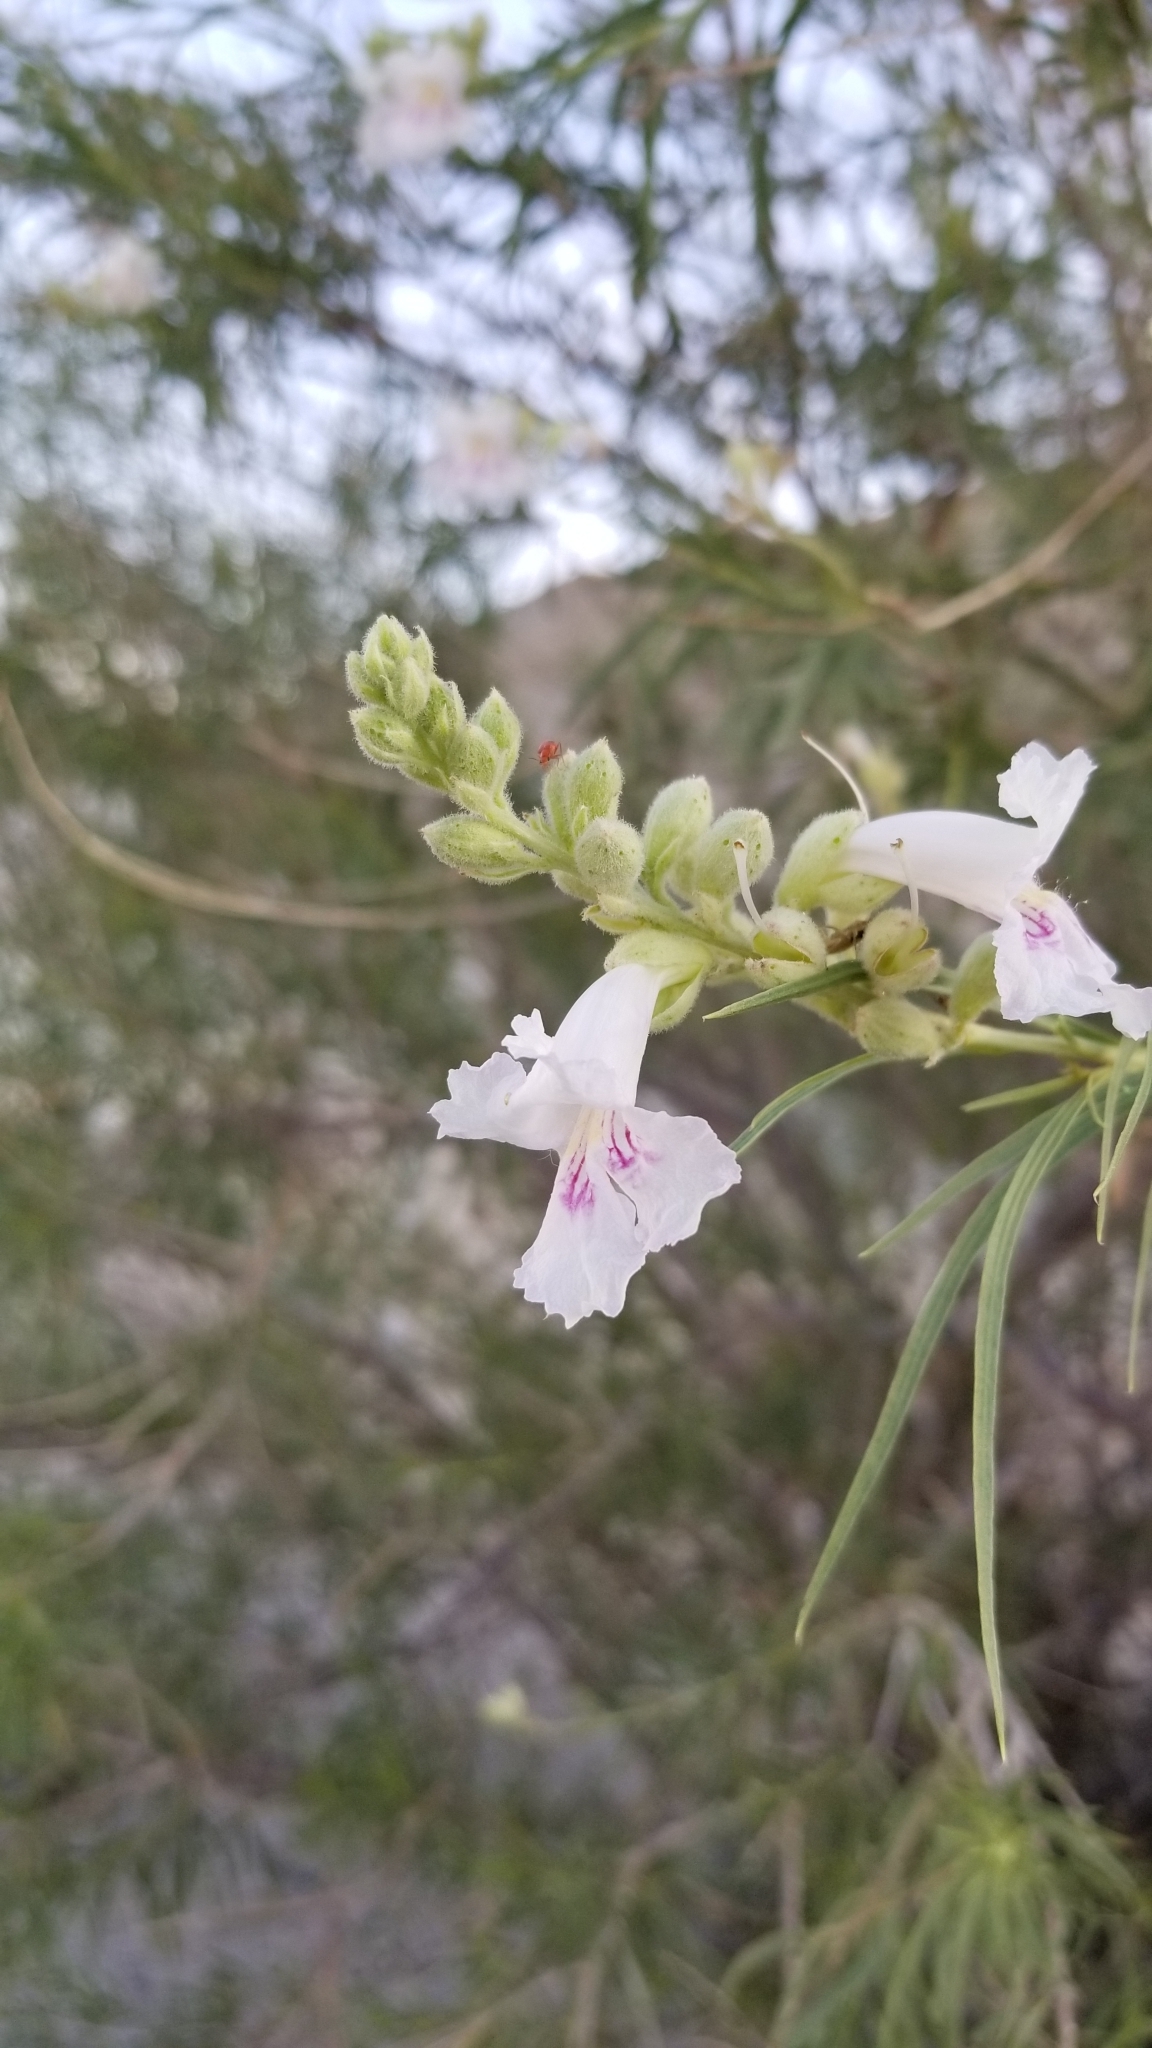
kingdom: Plantae
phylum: Tracheophyta
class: Magnoliopsida
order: Lamiales
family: Bignoniaceae
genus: Chilopsis
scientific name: Chilopsis linearis
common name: Desert-willow
